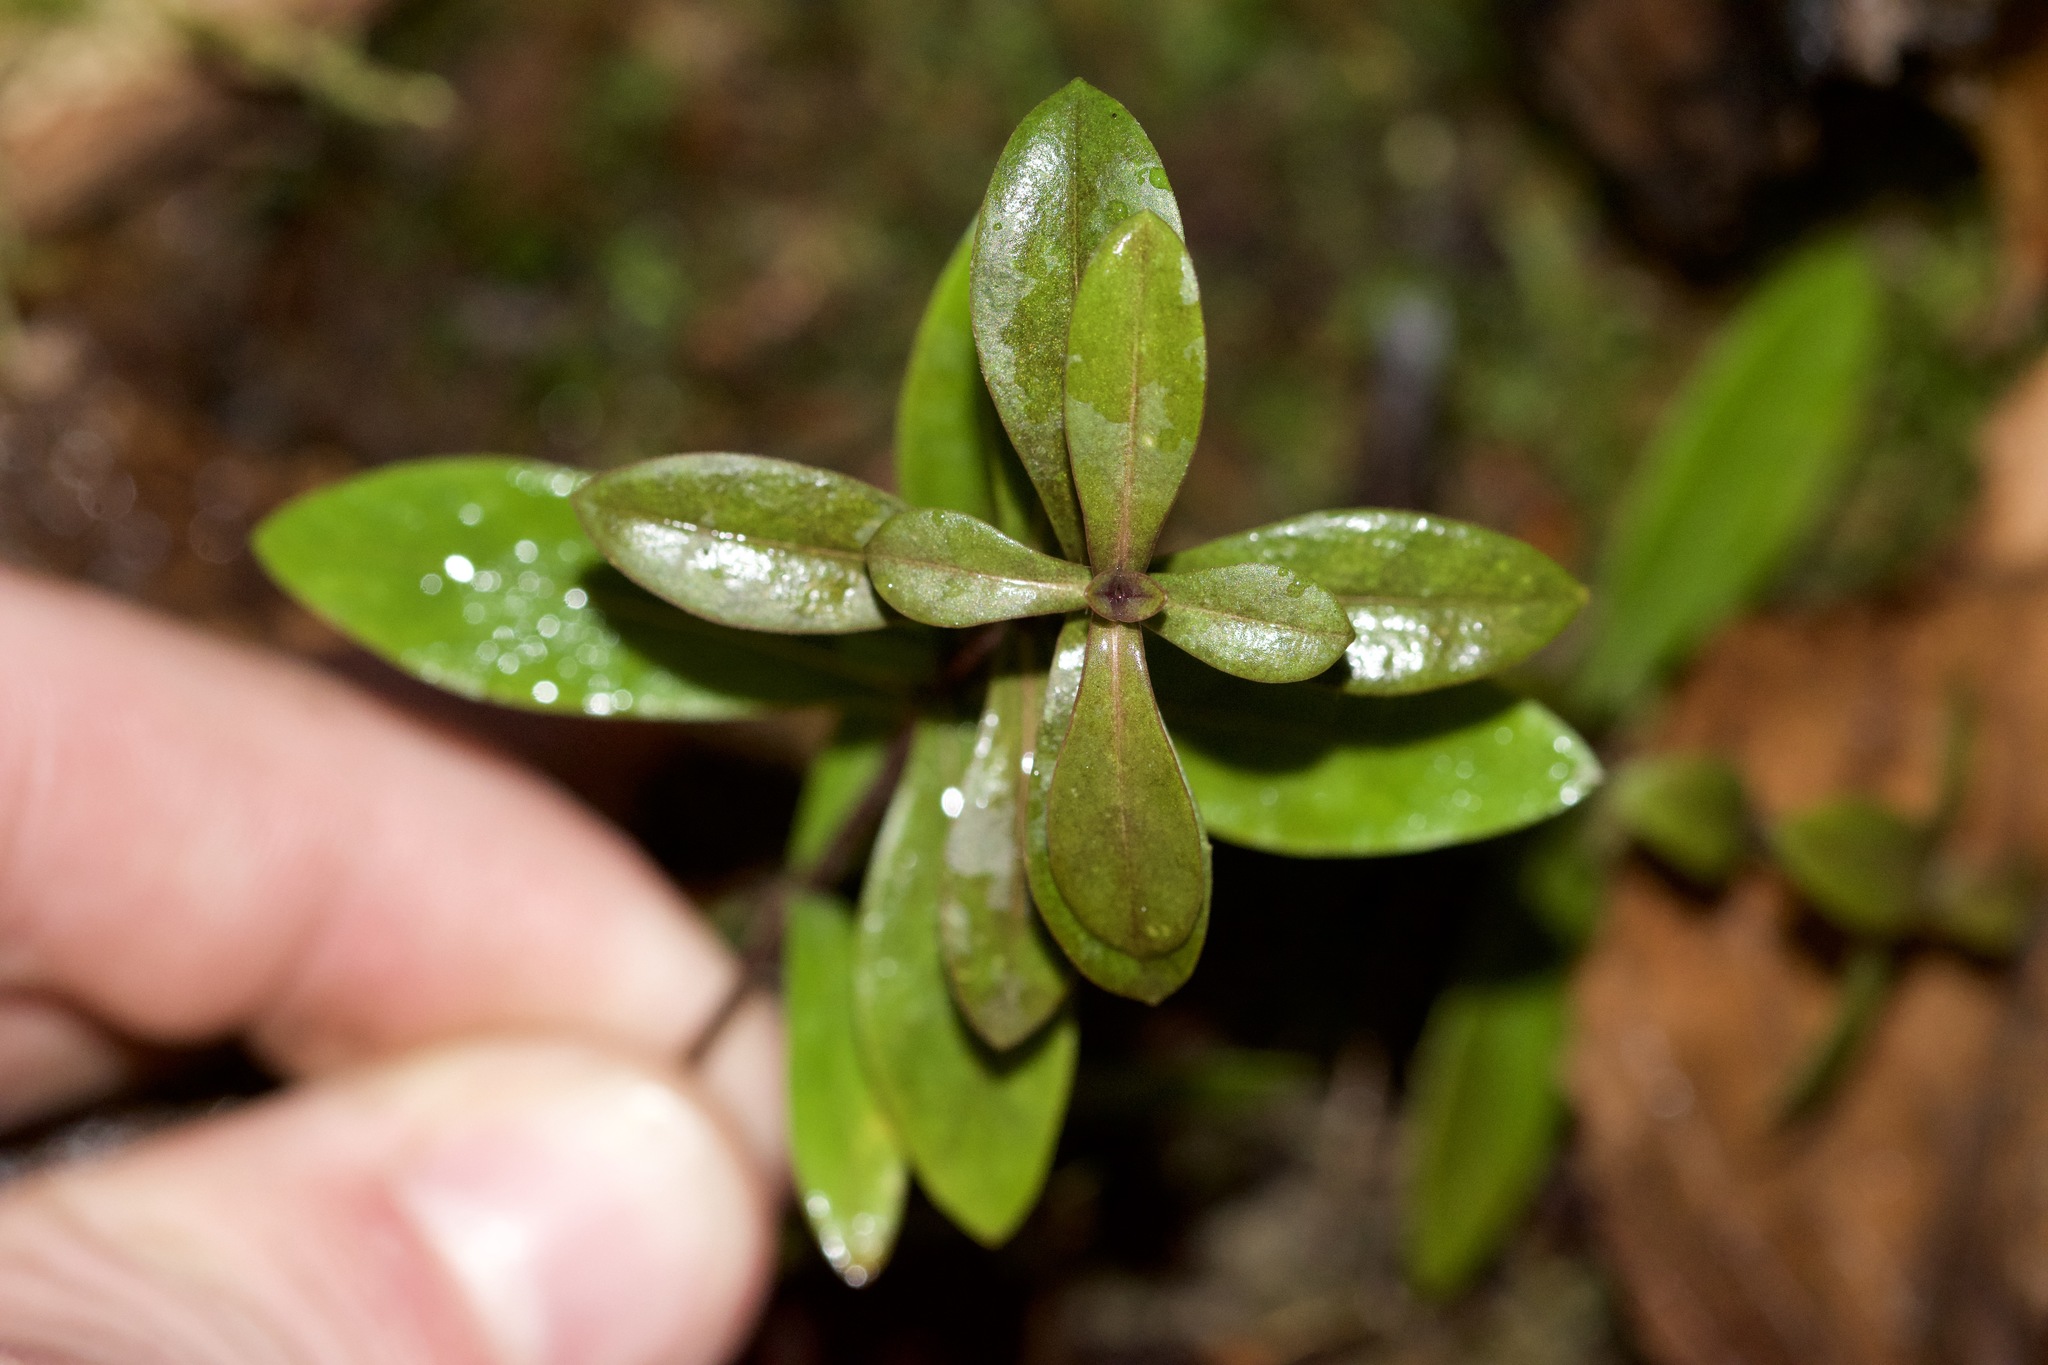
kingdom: Plantae
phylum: Tracheophyta
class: Magnoliopsida
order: Ericales
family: Polemoniaceae
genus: Phlox
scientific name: Phlox divaricata
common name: Blue phlox
